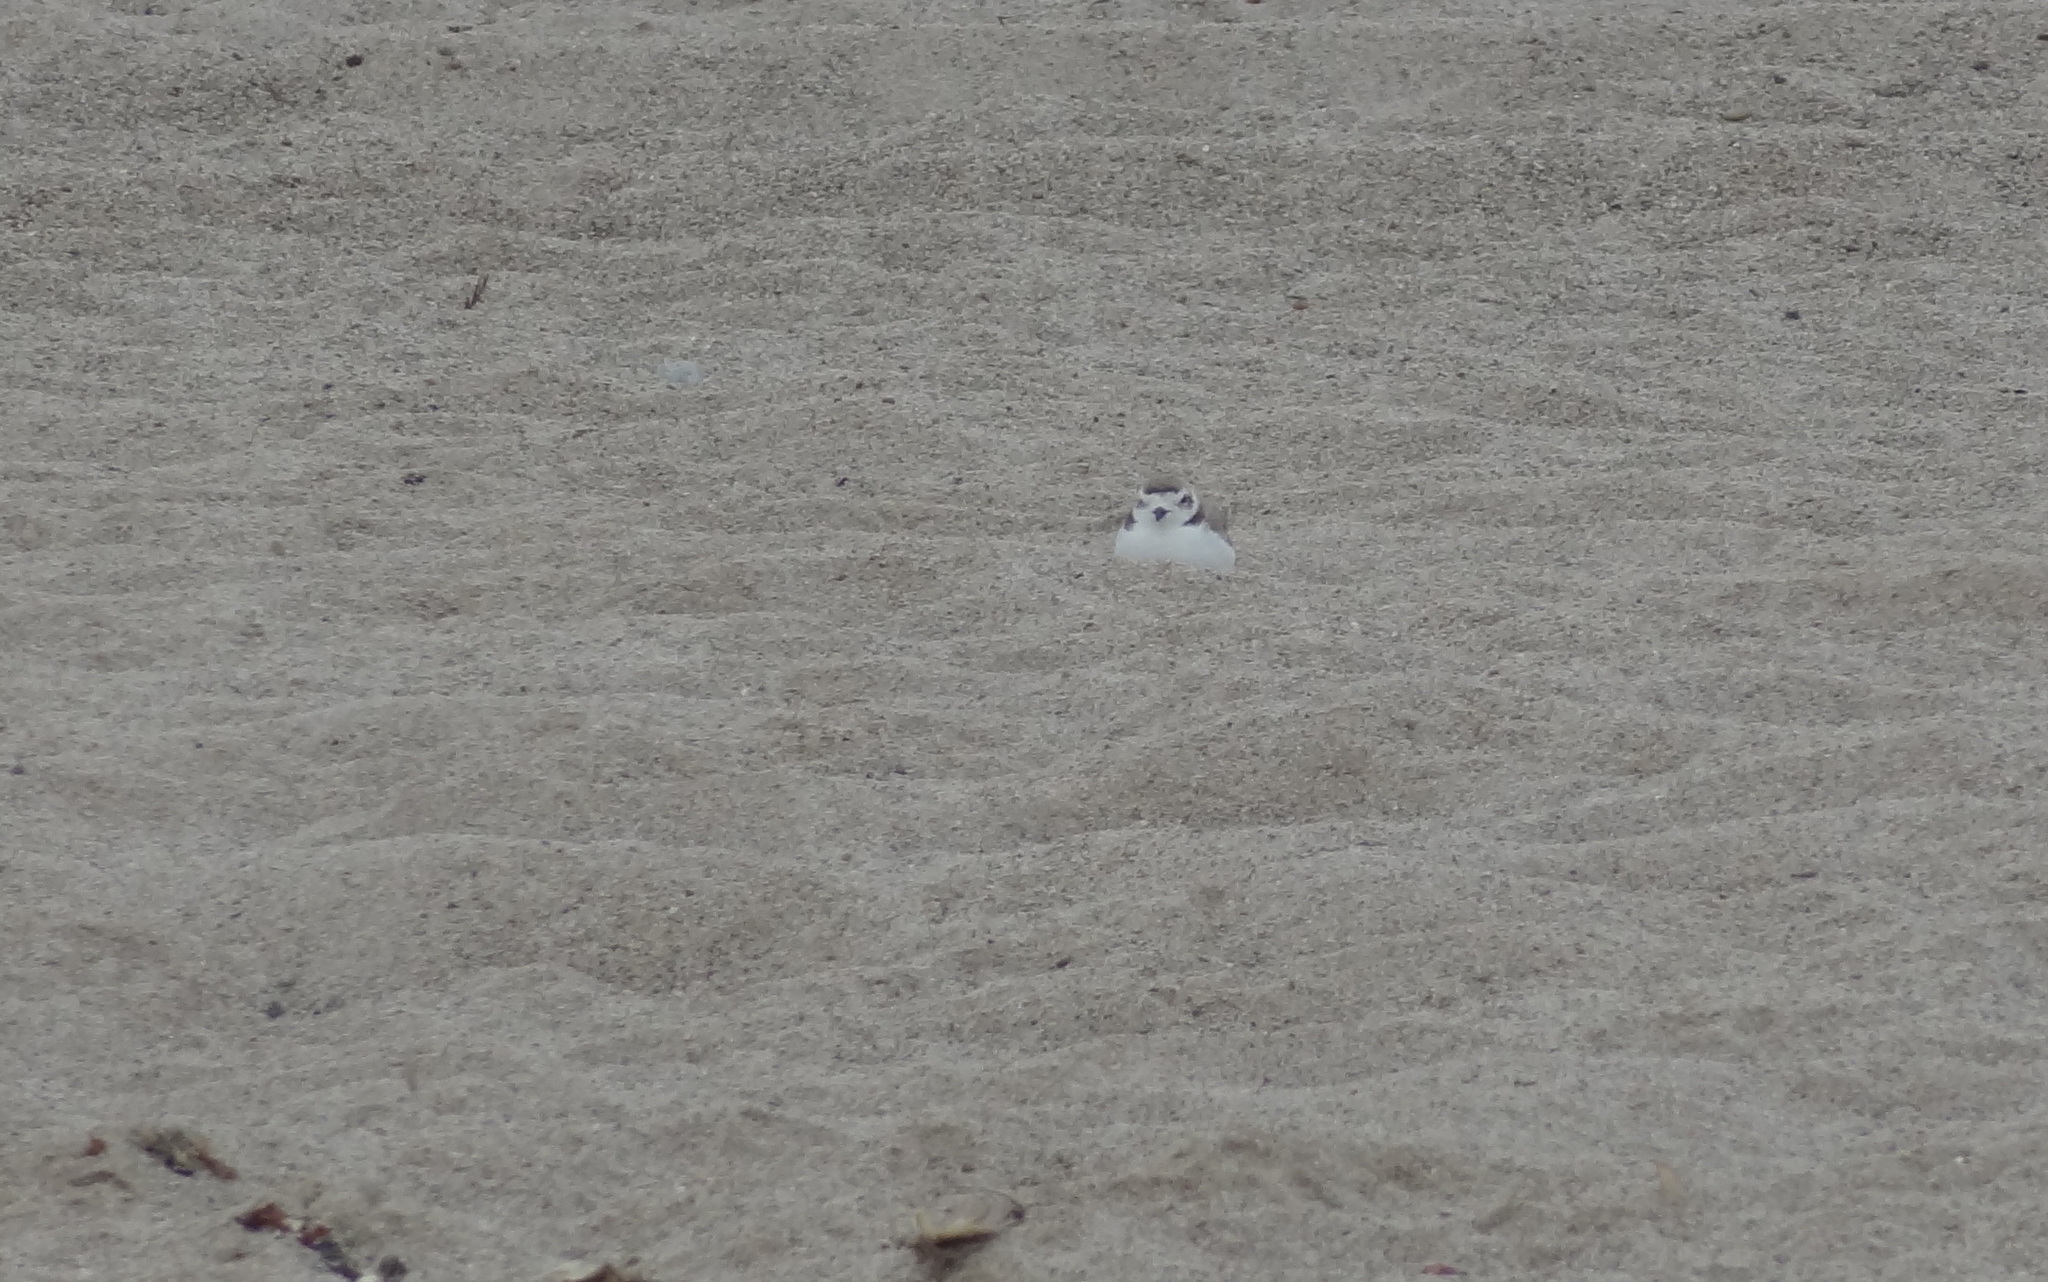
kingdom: Animalia
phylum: Chordata
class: Aves
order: Charadriiformes
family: Charadriidae
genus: Anarhynchus
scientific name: Anarhynchus
